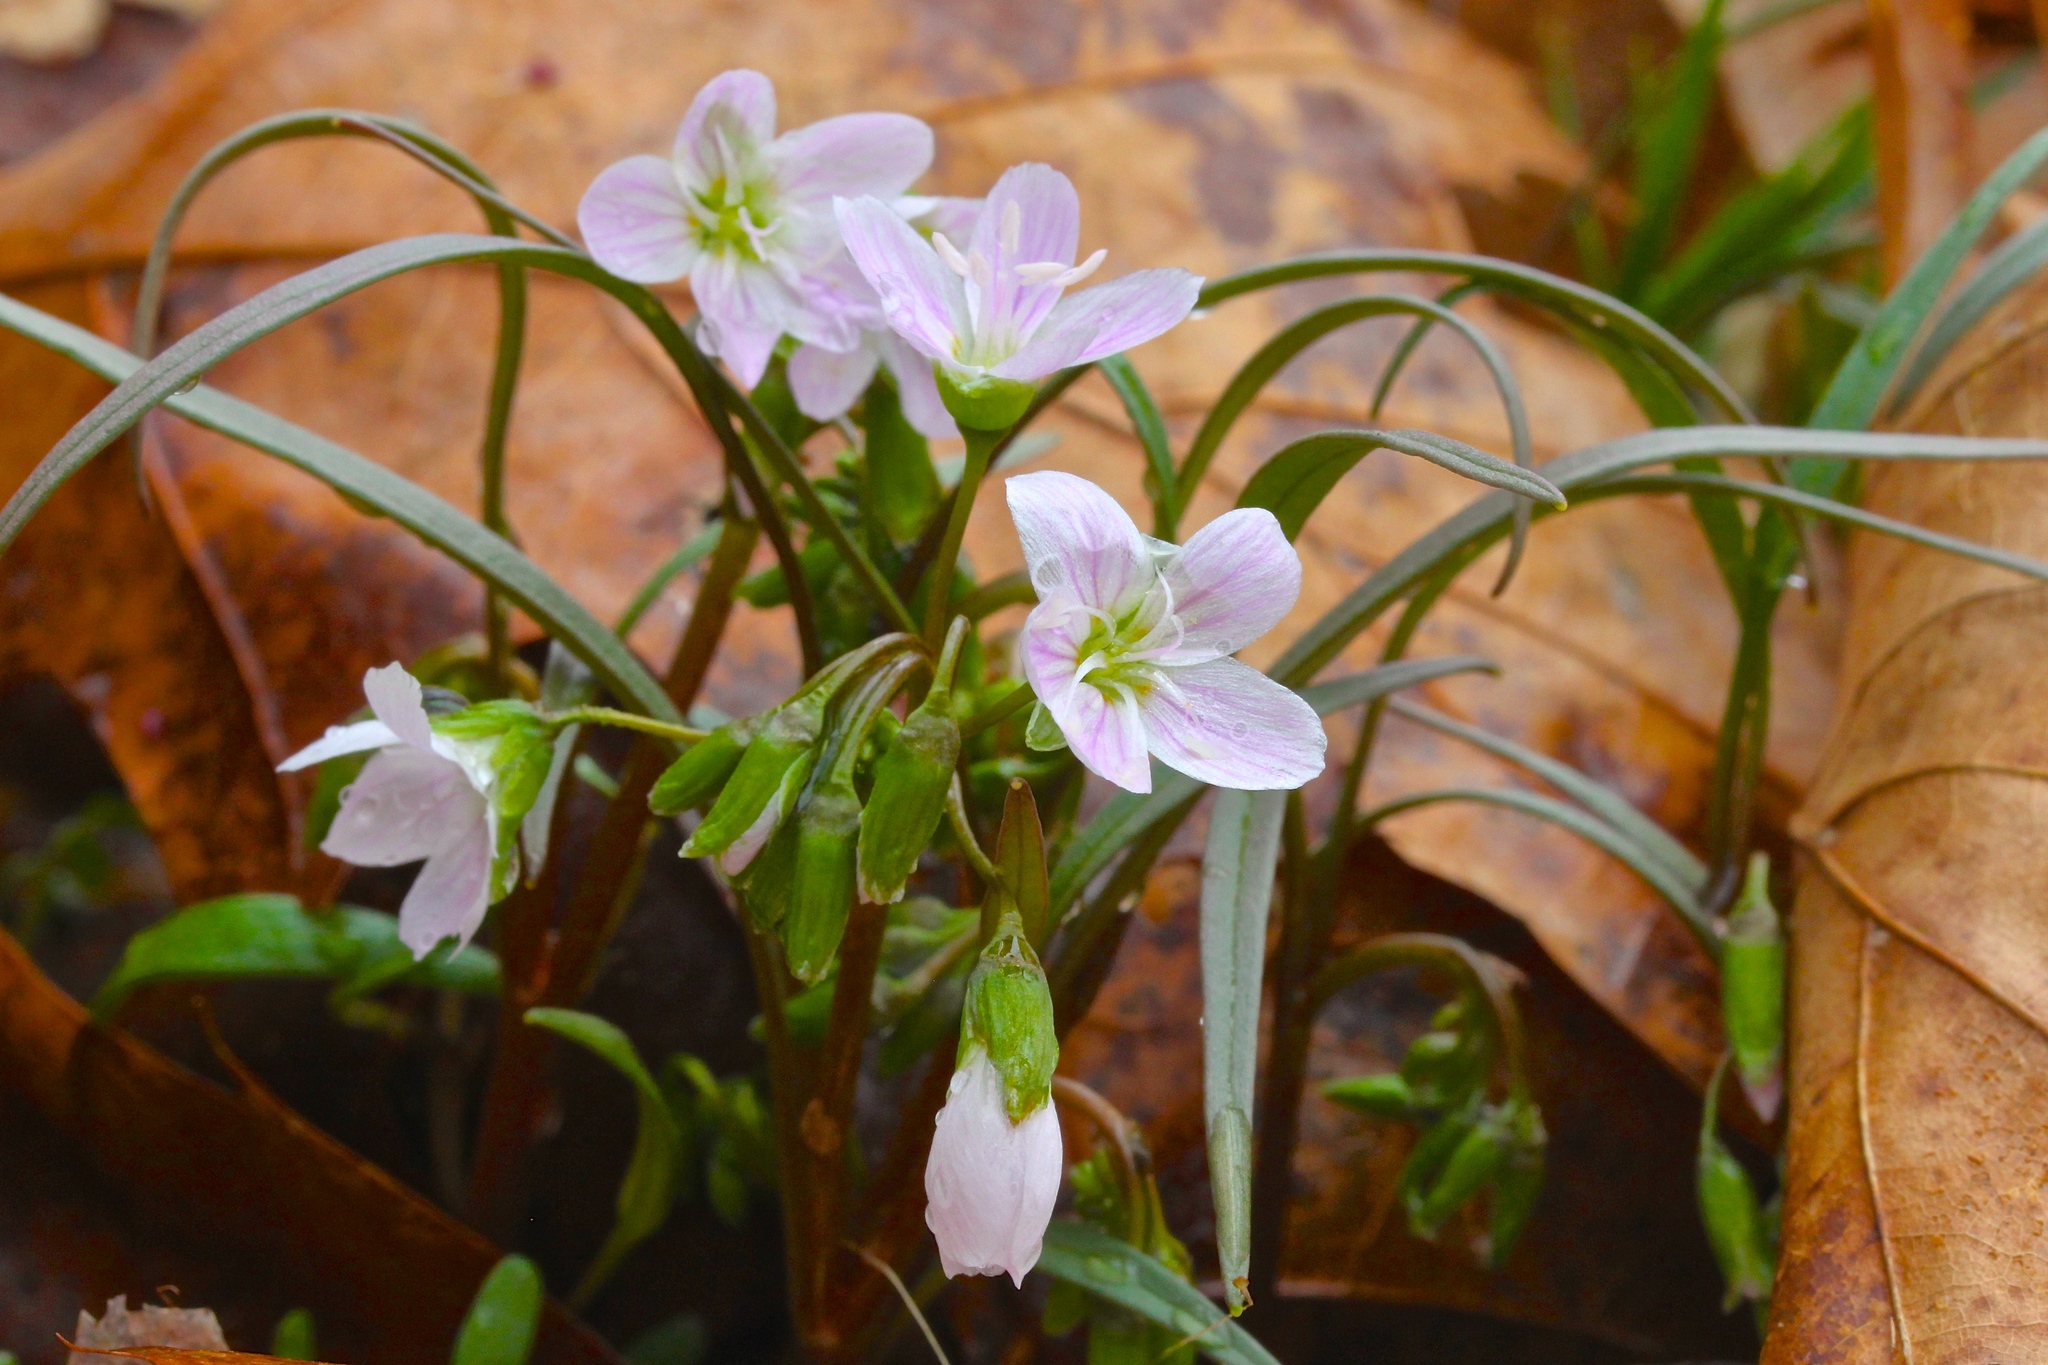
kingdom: Plantae
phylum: Tracheophyta
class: Magnoliopsida
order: Caryophyllales
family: Montiaceae
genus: Claytonia
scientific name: Claytonia virginica
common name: Virginia springbeauty
